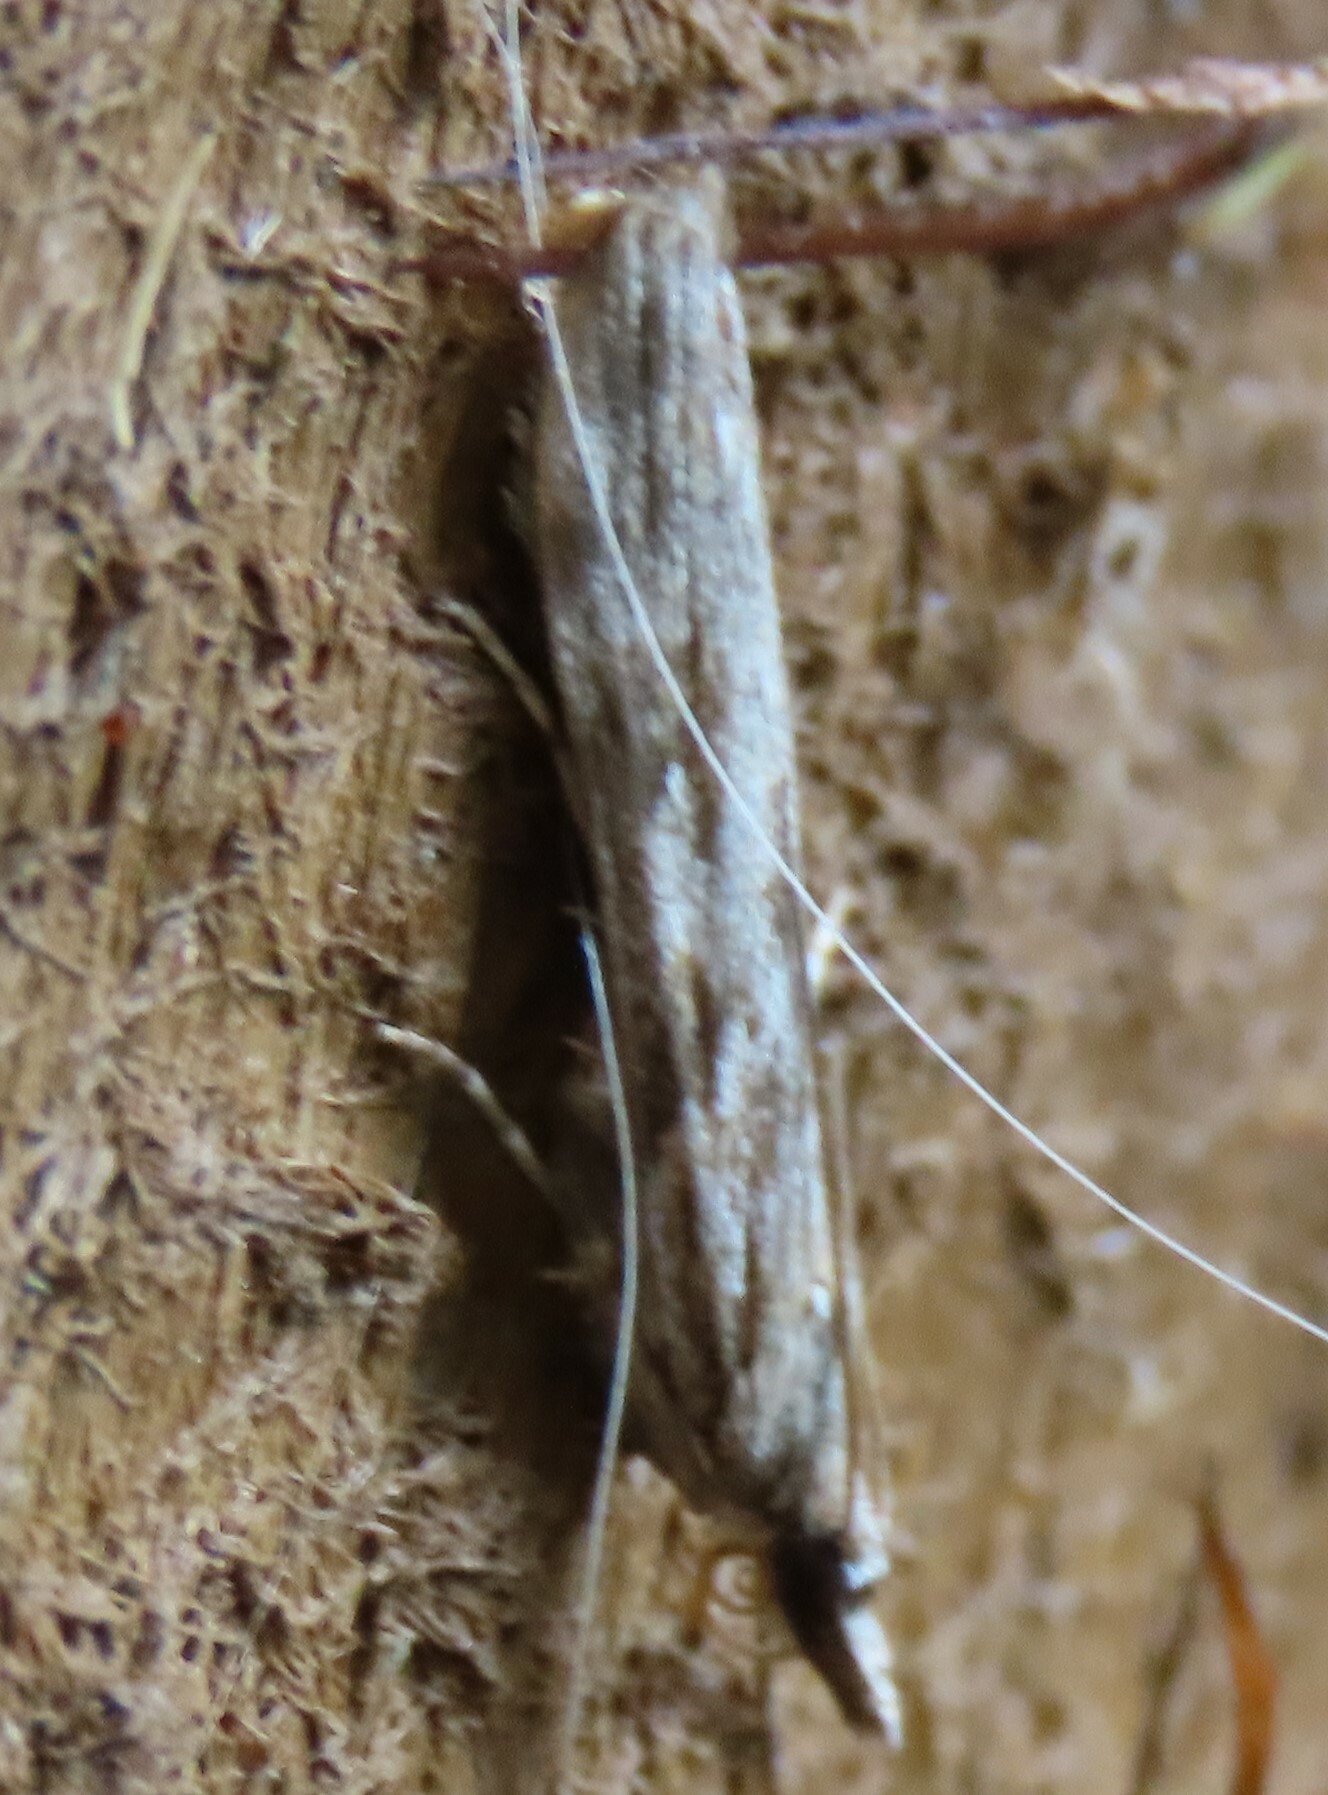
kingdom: Animalia
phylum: Arthropoda
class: Insecta
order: Lepidoptera
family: Crambidae
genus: Scoparia
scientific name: Scoparia halopis
